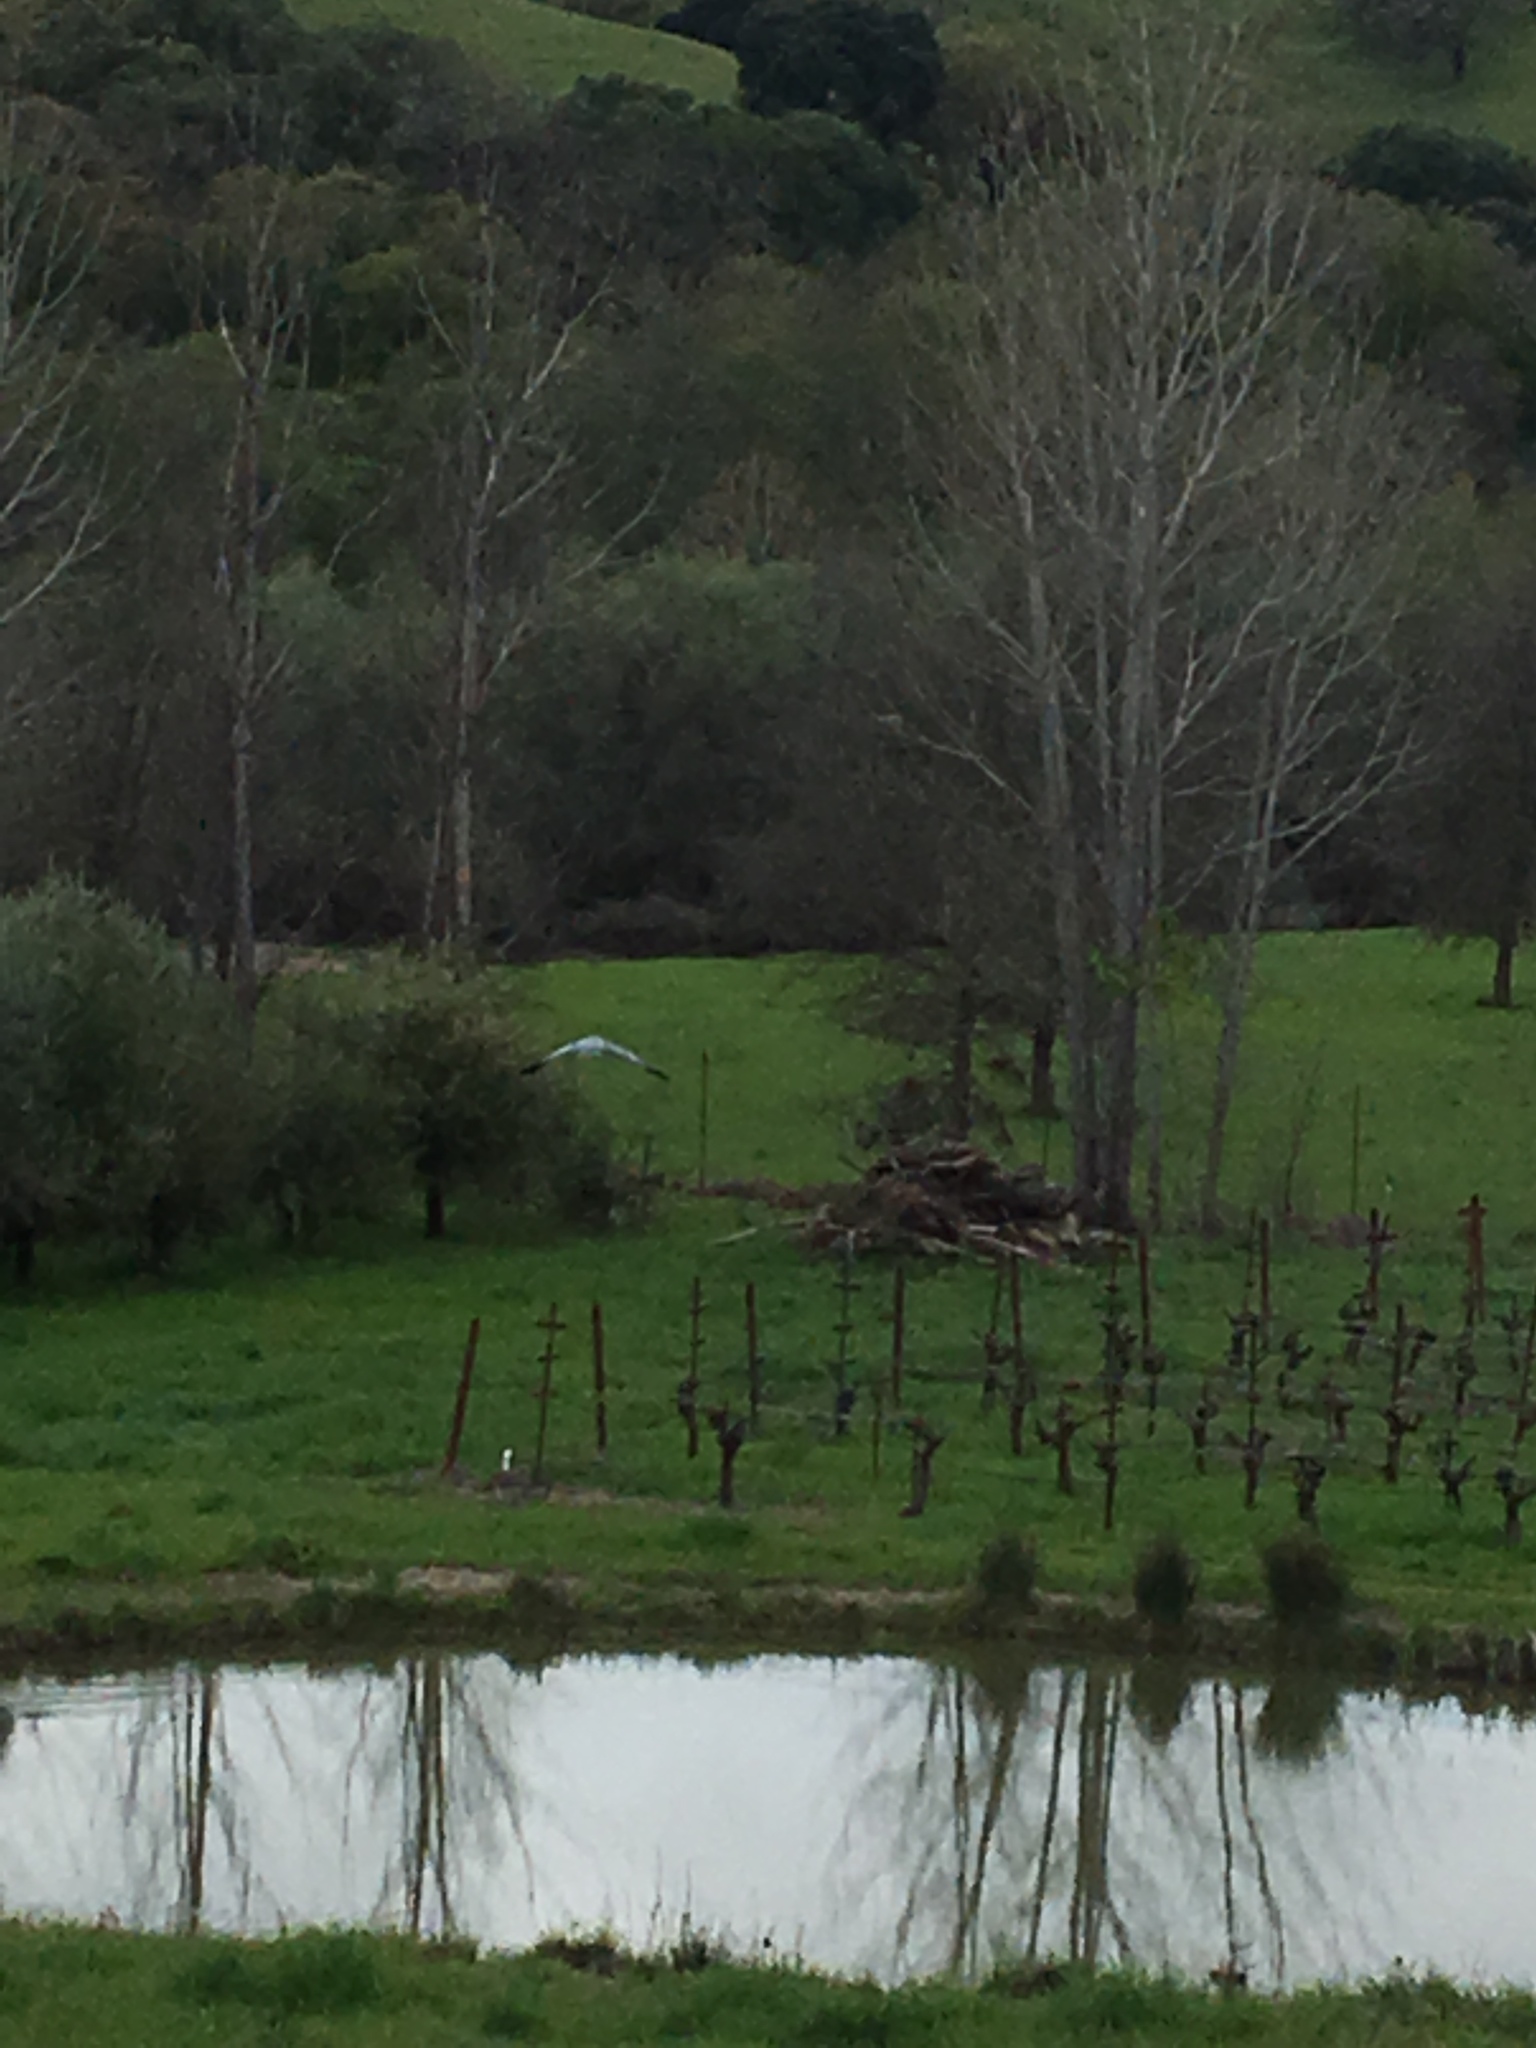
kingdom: Animalia
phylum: Chordata
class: Aves
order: Pelecaniformes
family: Ardeidae
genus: Ardea
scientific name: Ardea herodias
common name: Great blue heron
